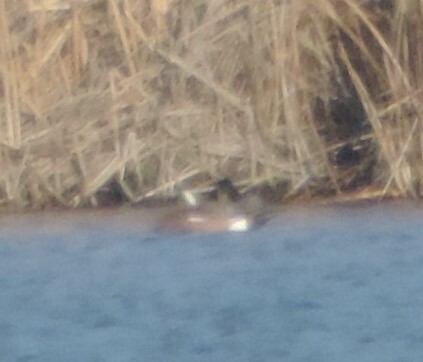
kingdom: Animalia
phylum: Chordata
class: Aves
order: Anseriformes
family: Anatidae
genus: Mareca
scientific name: Mareca americana
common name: American wigeon
